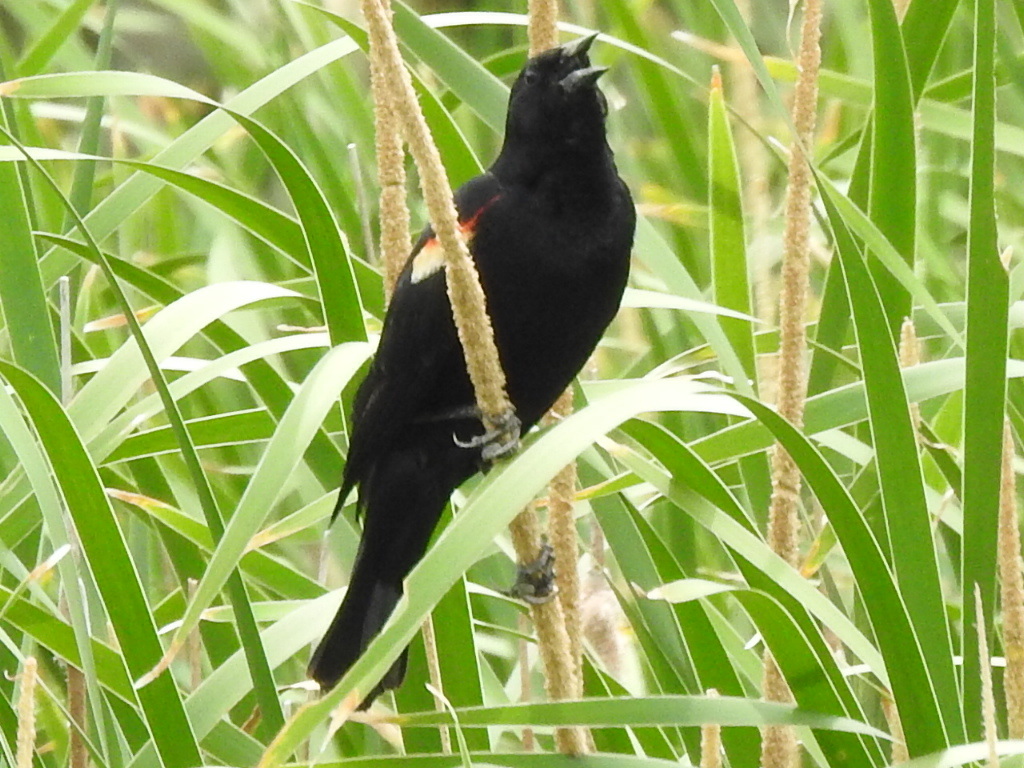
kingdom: Animalia
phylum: Chordata
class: Aves
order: Passeriformes
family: Icteridae
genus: Agelaius
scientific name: Agelaius phoeniceus
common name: Red-winged blackbird
